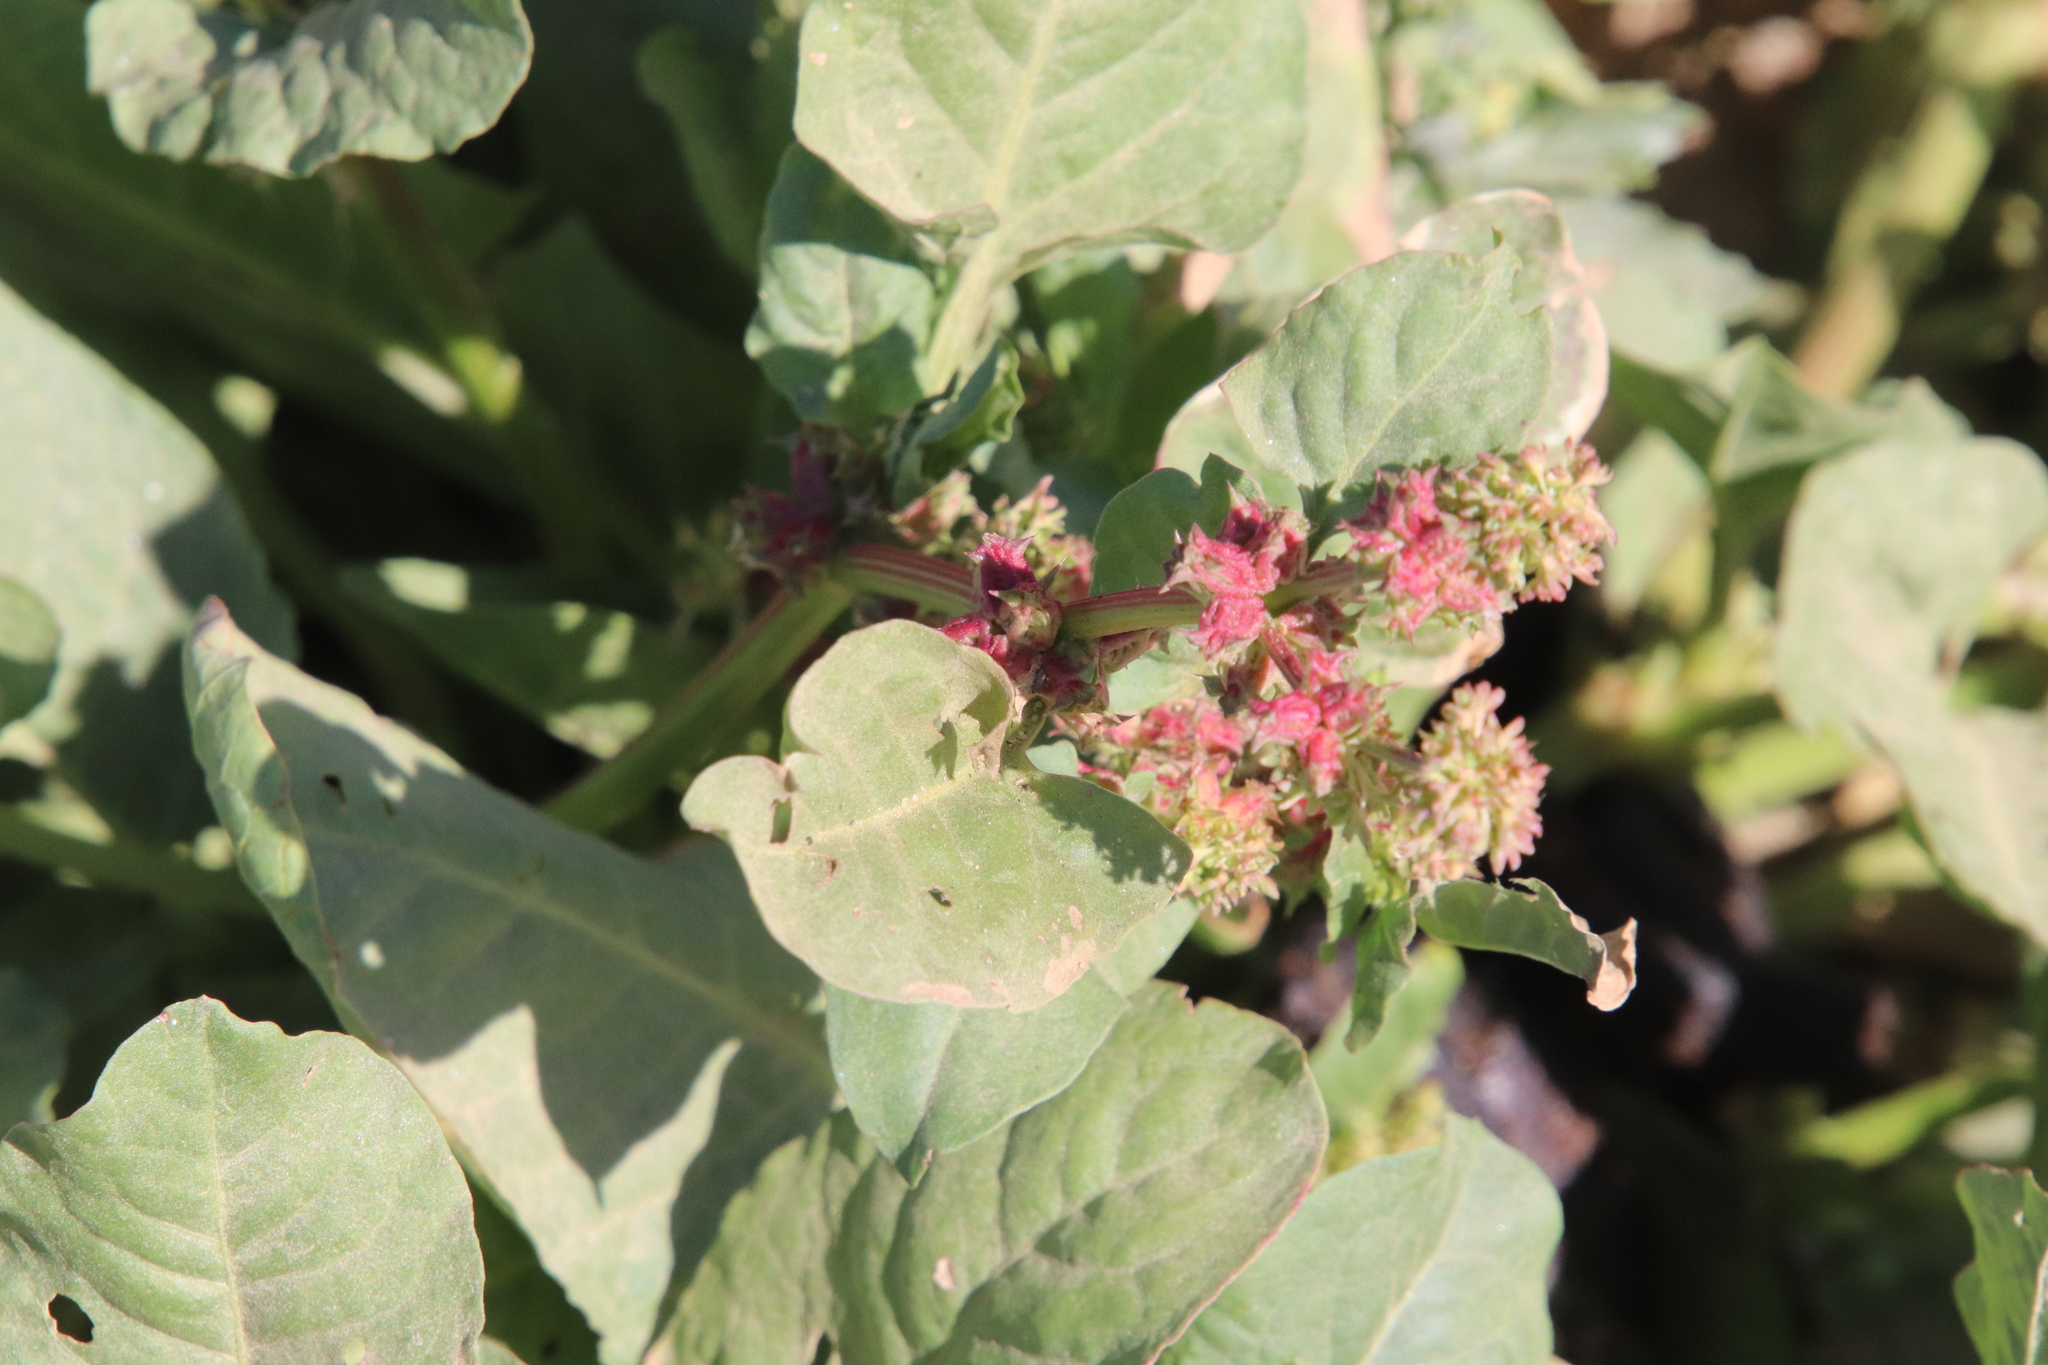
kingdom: Plantae
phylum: Tracheophyta
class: Magnoliopsida
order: Caryophyllales
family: Polygonaceae
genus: Rumex
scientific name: Rumex spinosus
